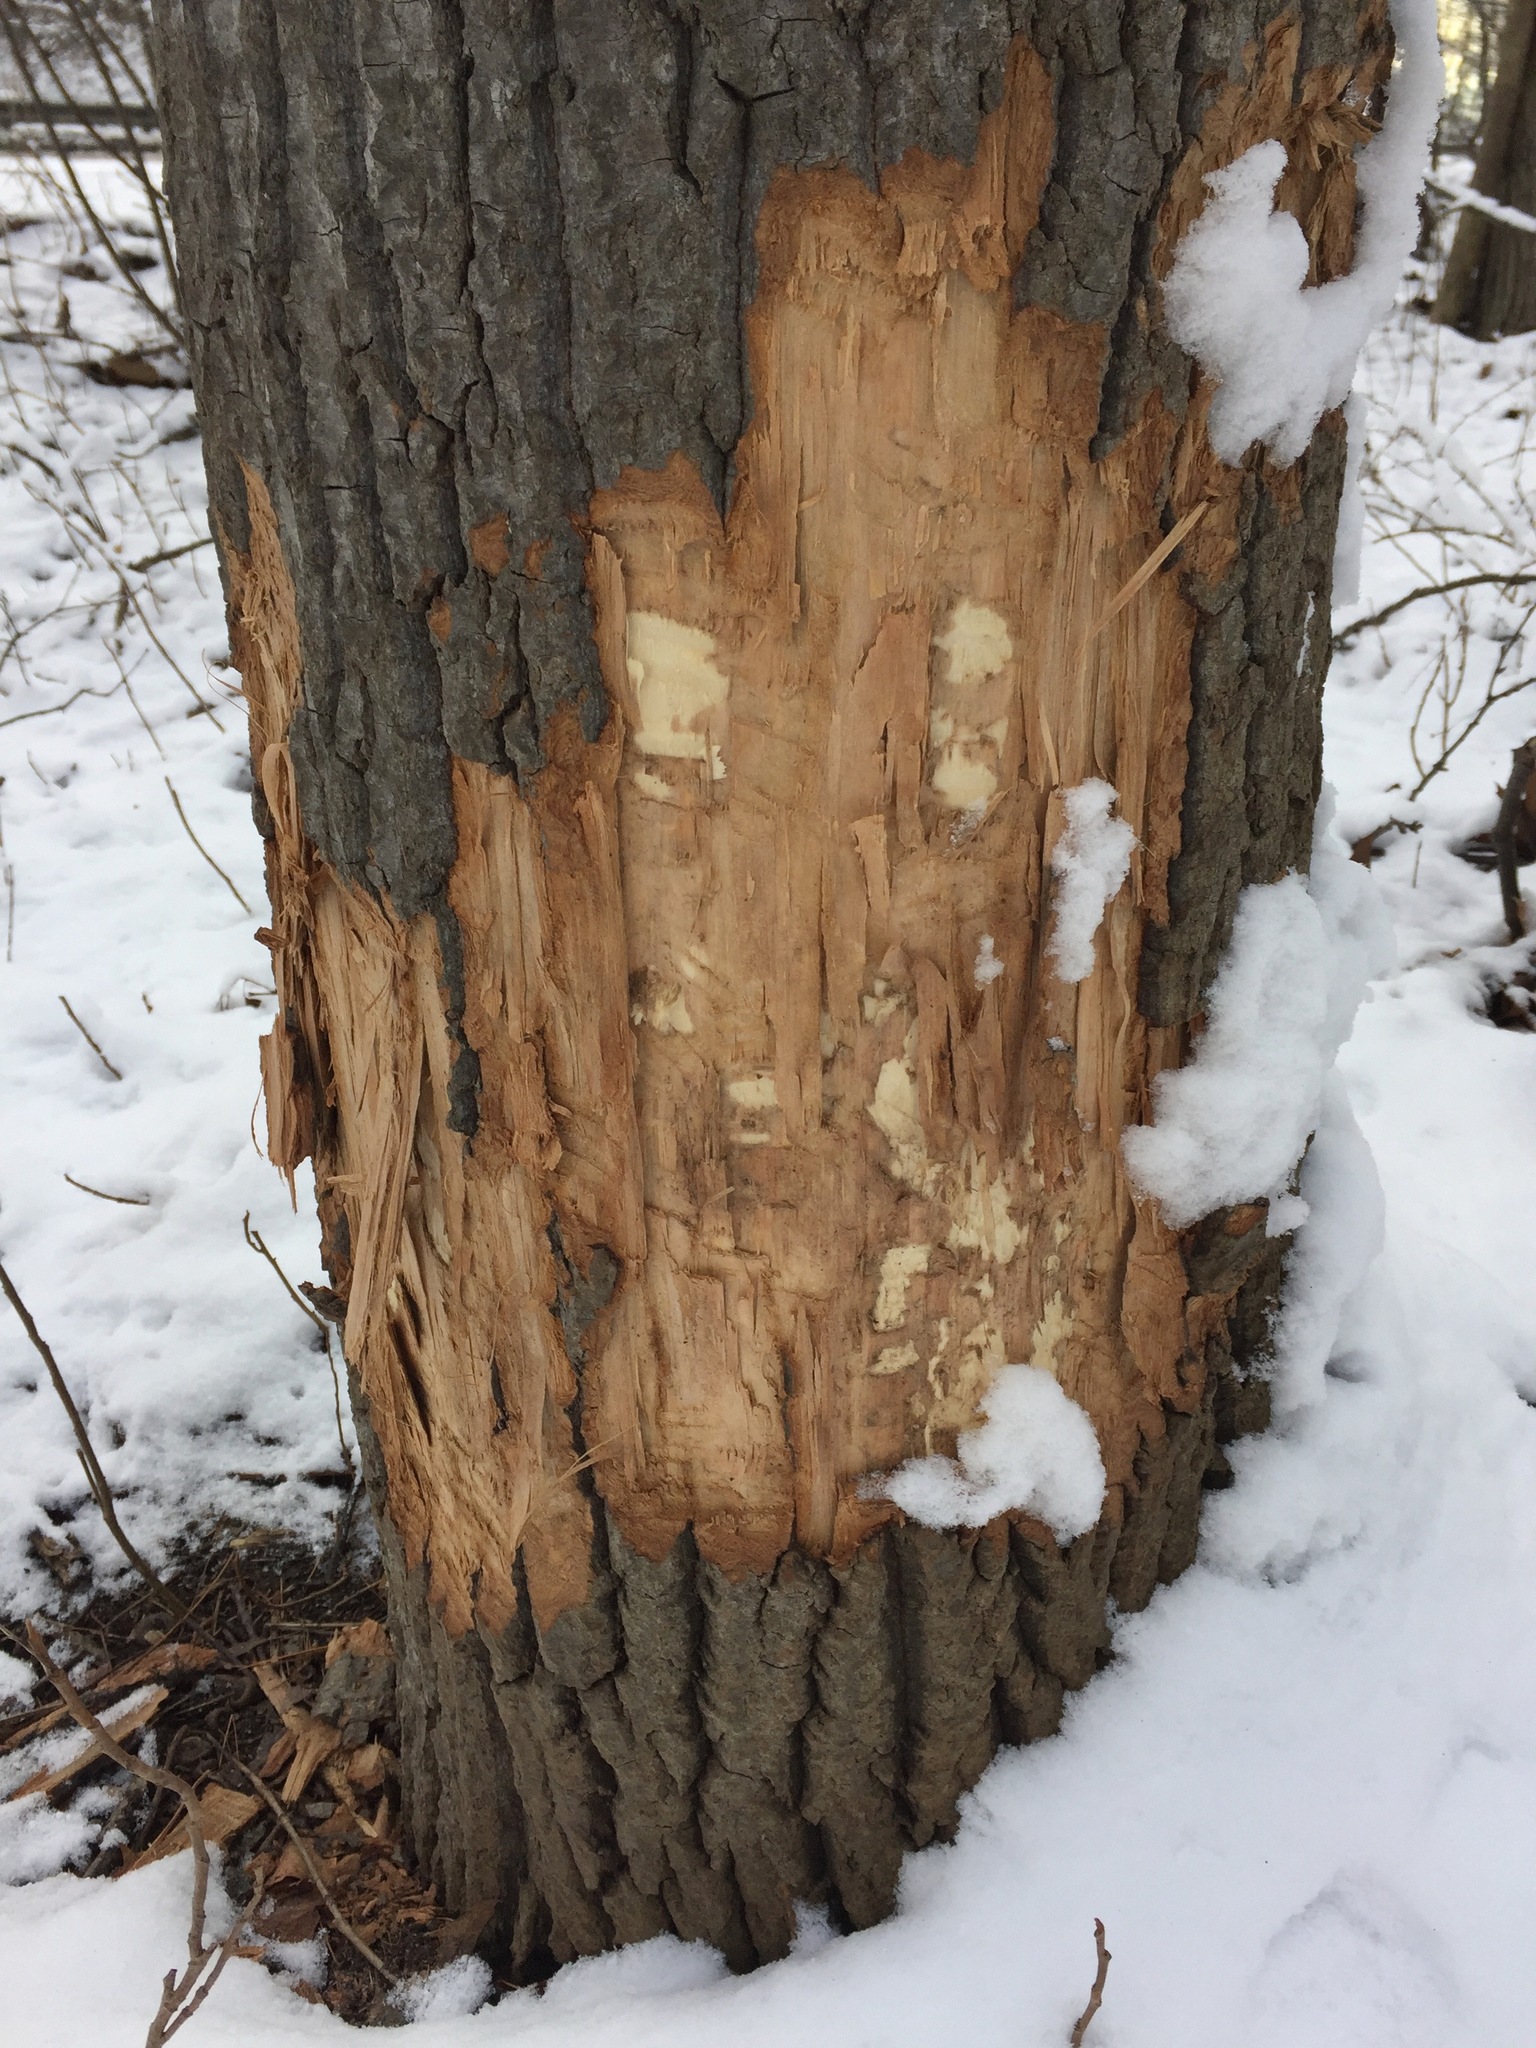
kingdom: Animalia
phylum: Chordata
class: Mammalia
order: Rodentia
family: Castoridae
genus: Castor
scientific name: Castor canadensis
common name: American beaver
